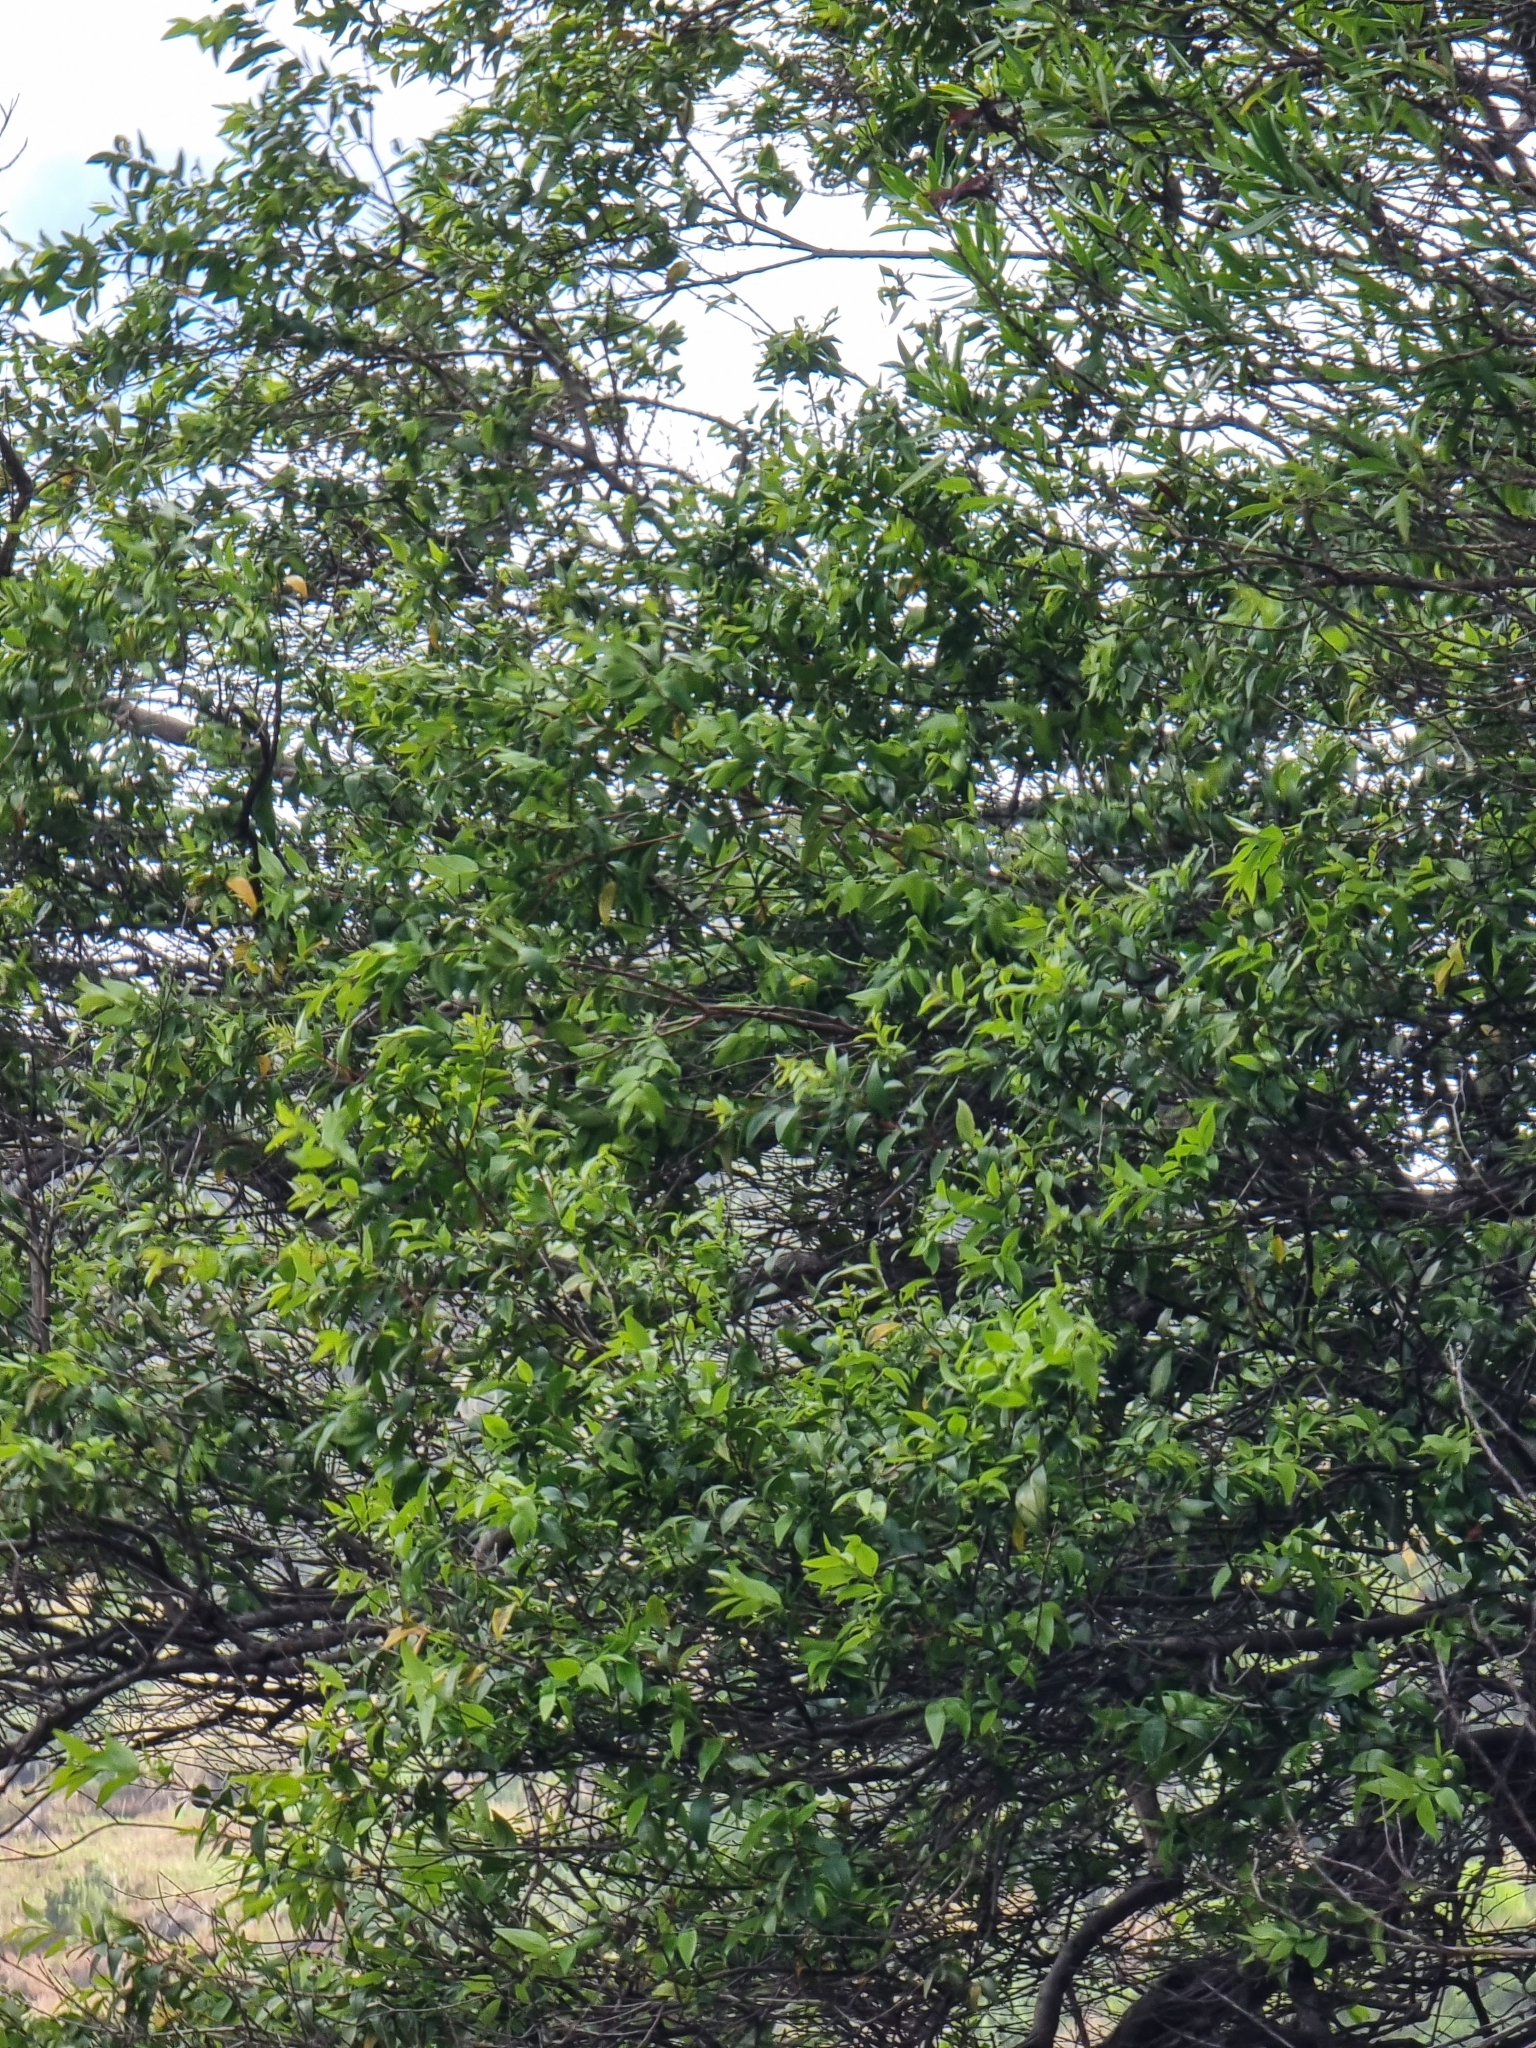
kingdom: Plantae
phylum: Tracheophyta
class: Magnoliopsida
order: Myrtales
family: Myrtaceae
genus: Myrtus
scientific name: Myrtus communis
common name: Myrtle
